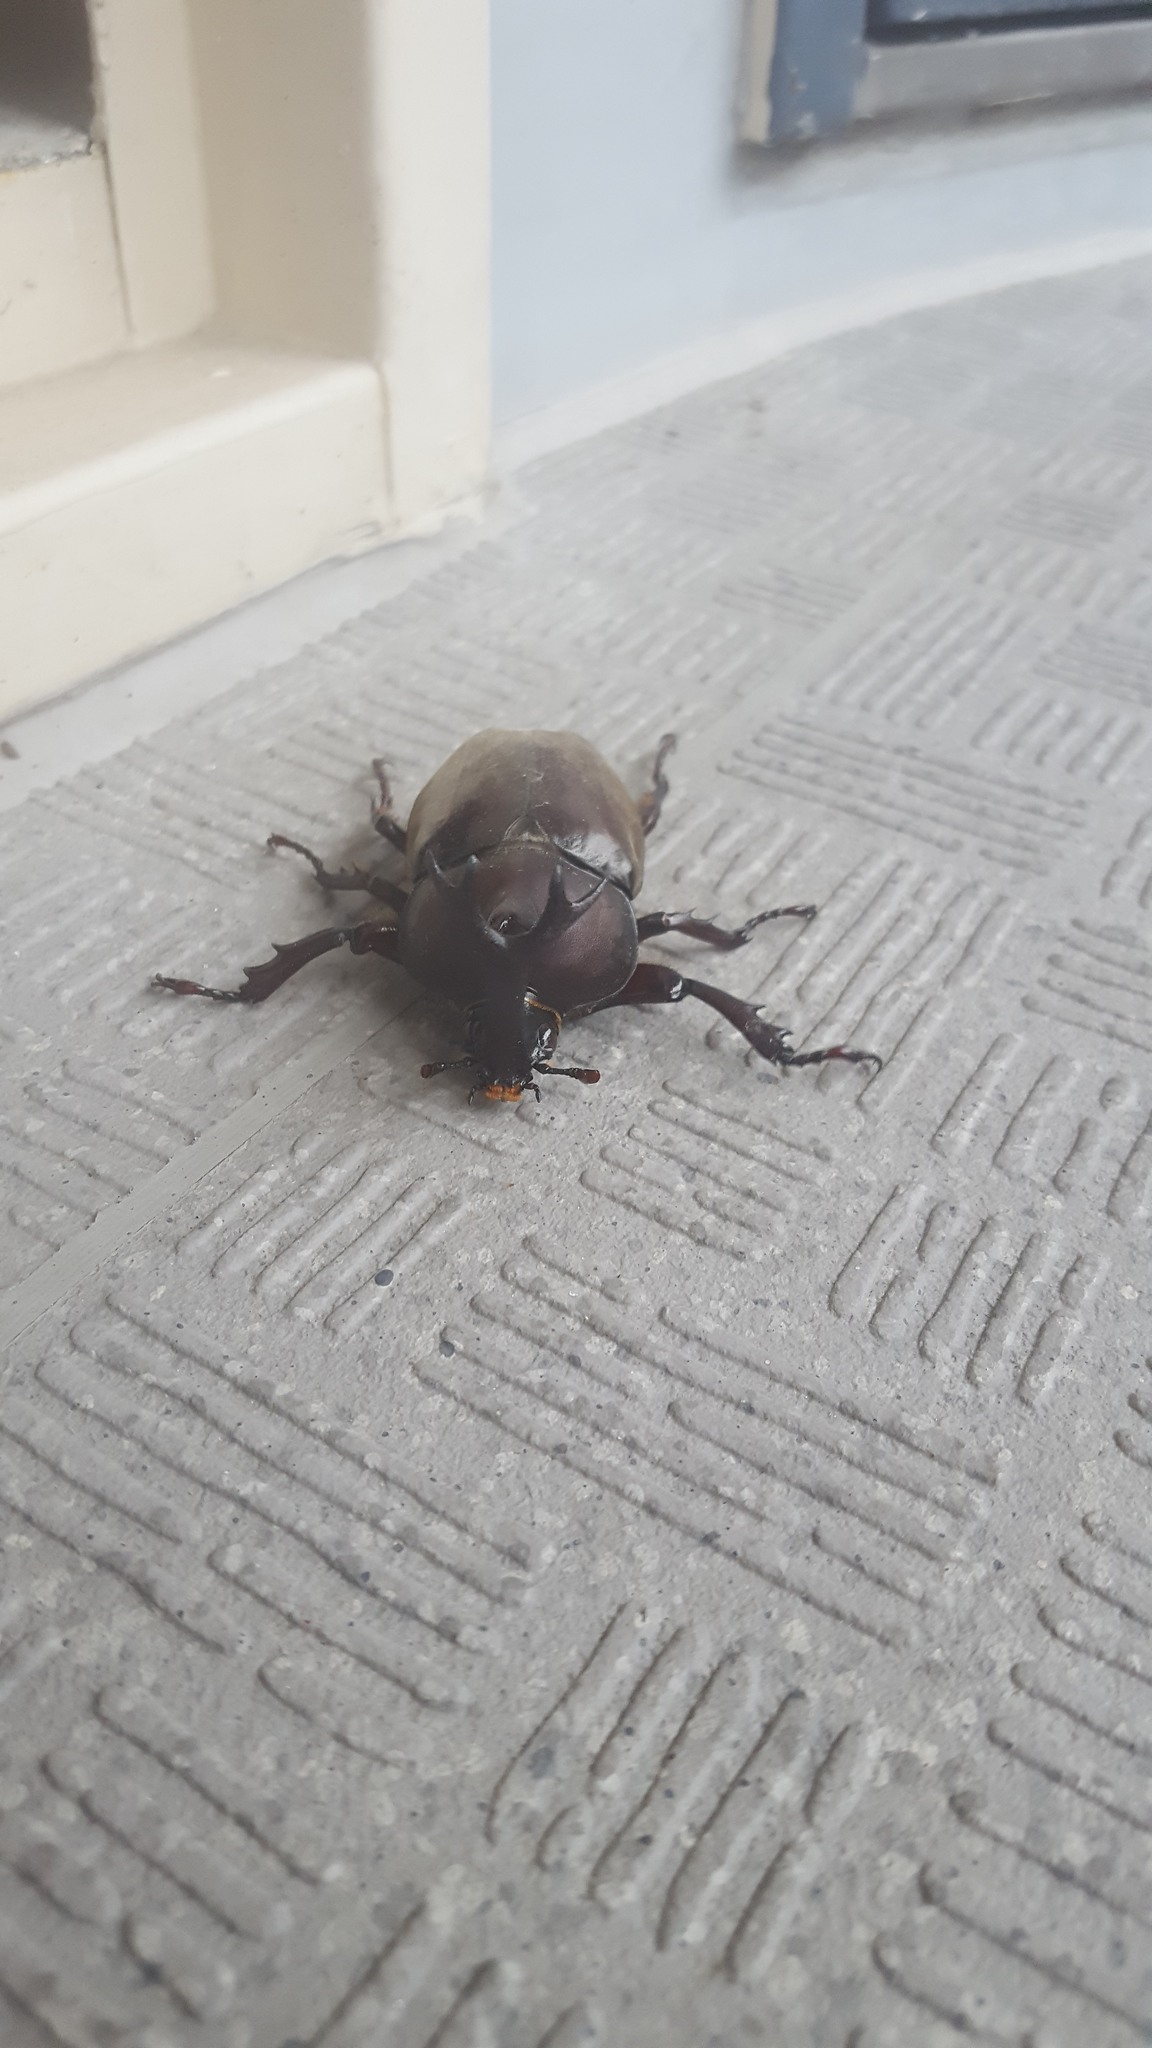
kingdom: Animalia
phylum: Arthropoda
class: Insecta
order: Coleoptera
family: Scarabaeidae
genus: Trypoxylus
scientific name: Trypoxylus dichotomus
